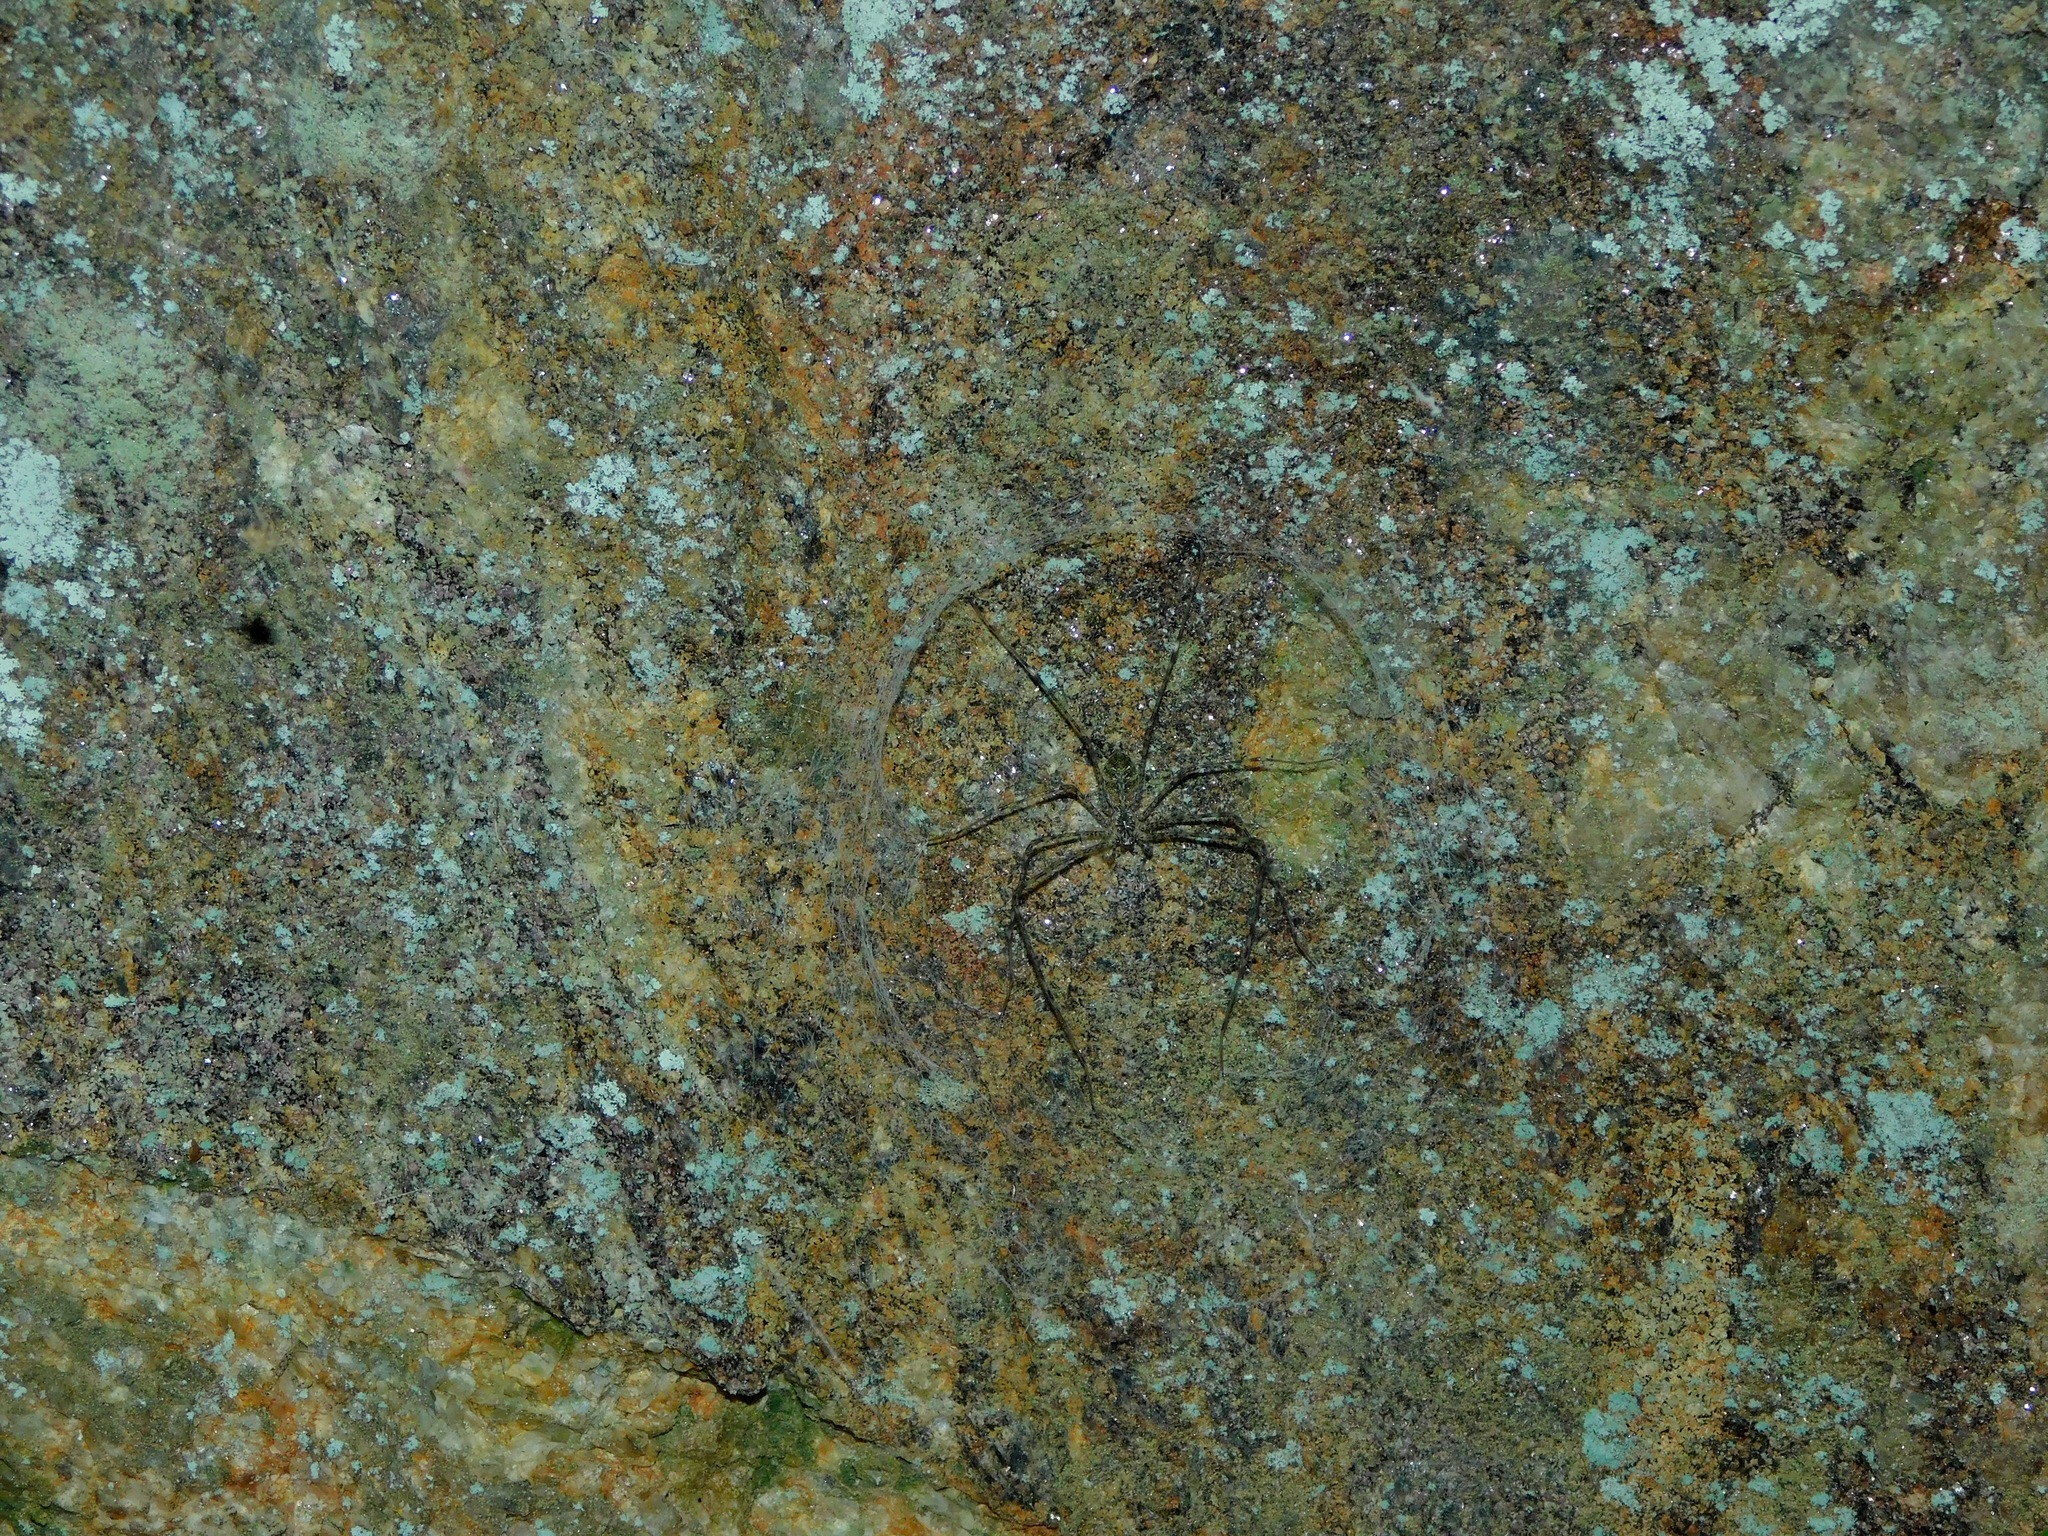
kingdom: Animalia
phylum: Arthropoda
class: Arachnida
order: Araneae
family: Hypochilidae
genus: Hypochilus
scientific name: Hypochilus pococki
